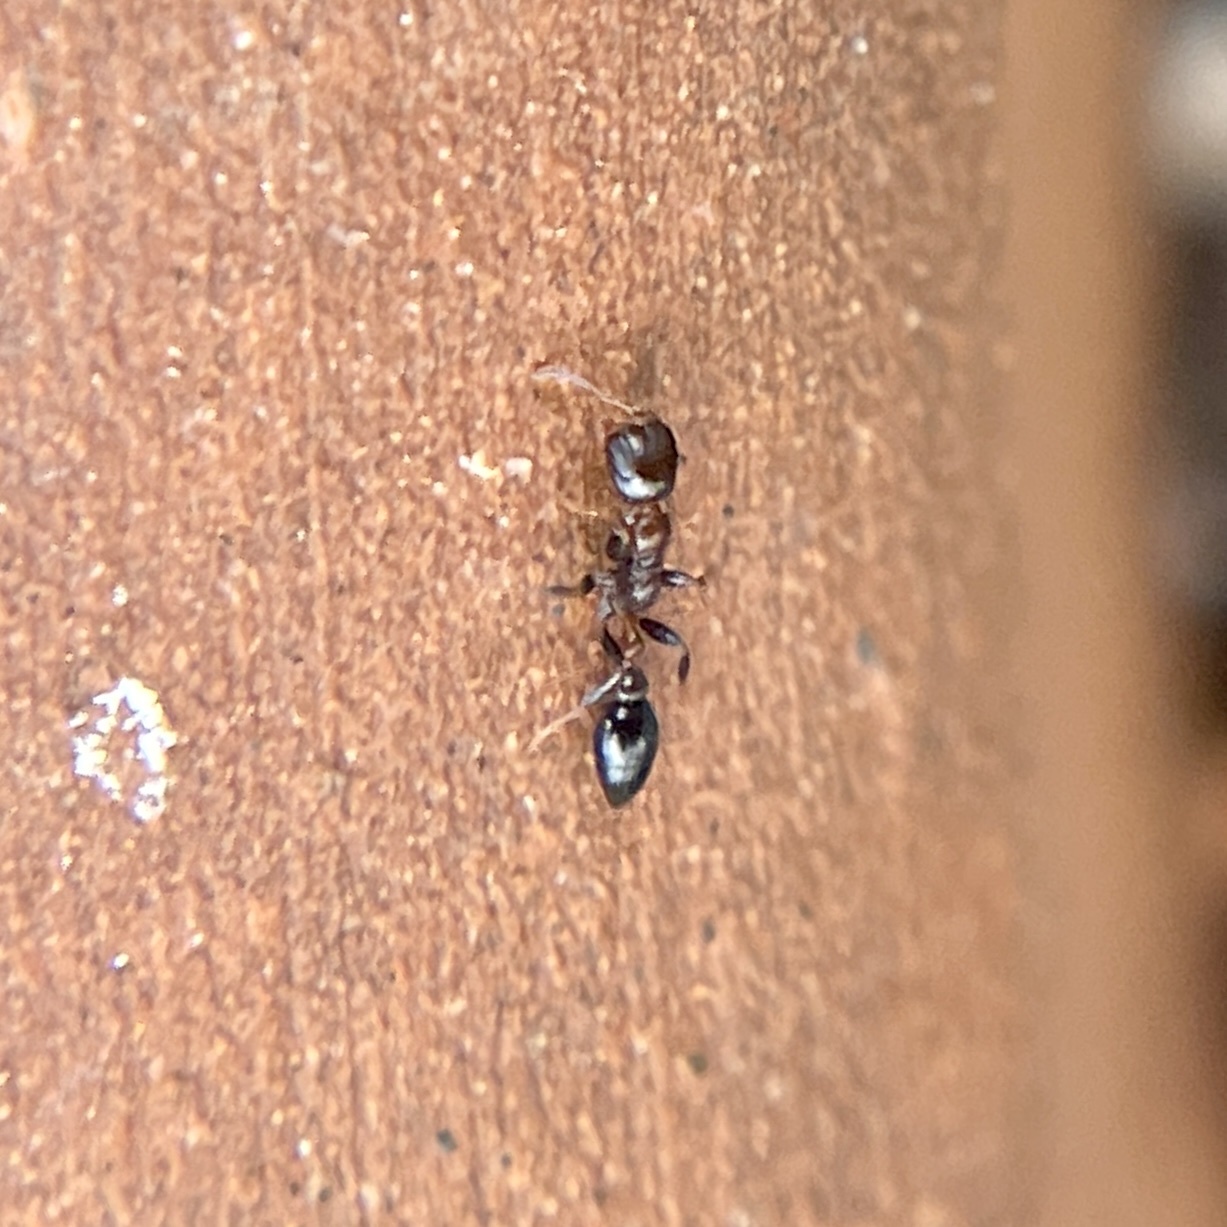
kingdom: Animalia
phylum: Arthropoda
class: Insecta
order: Hymenoptera
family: Formicidae
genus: Pseudomyrmex
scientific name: Pseudomyrmex ejectus
